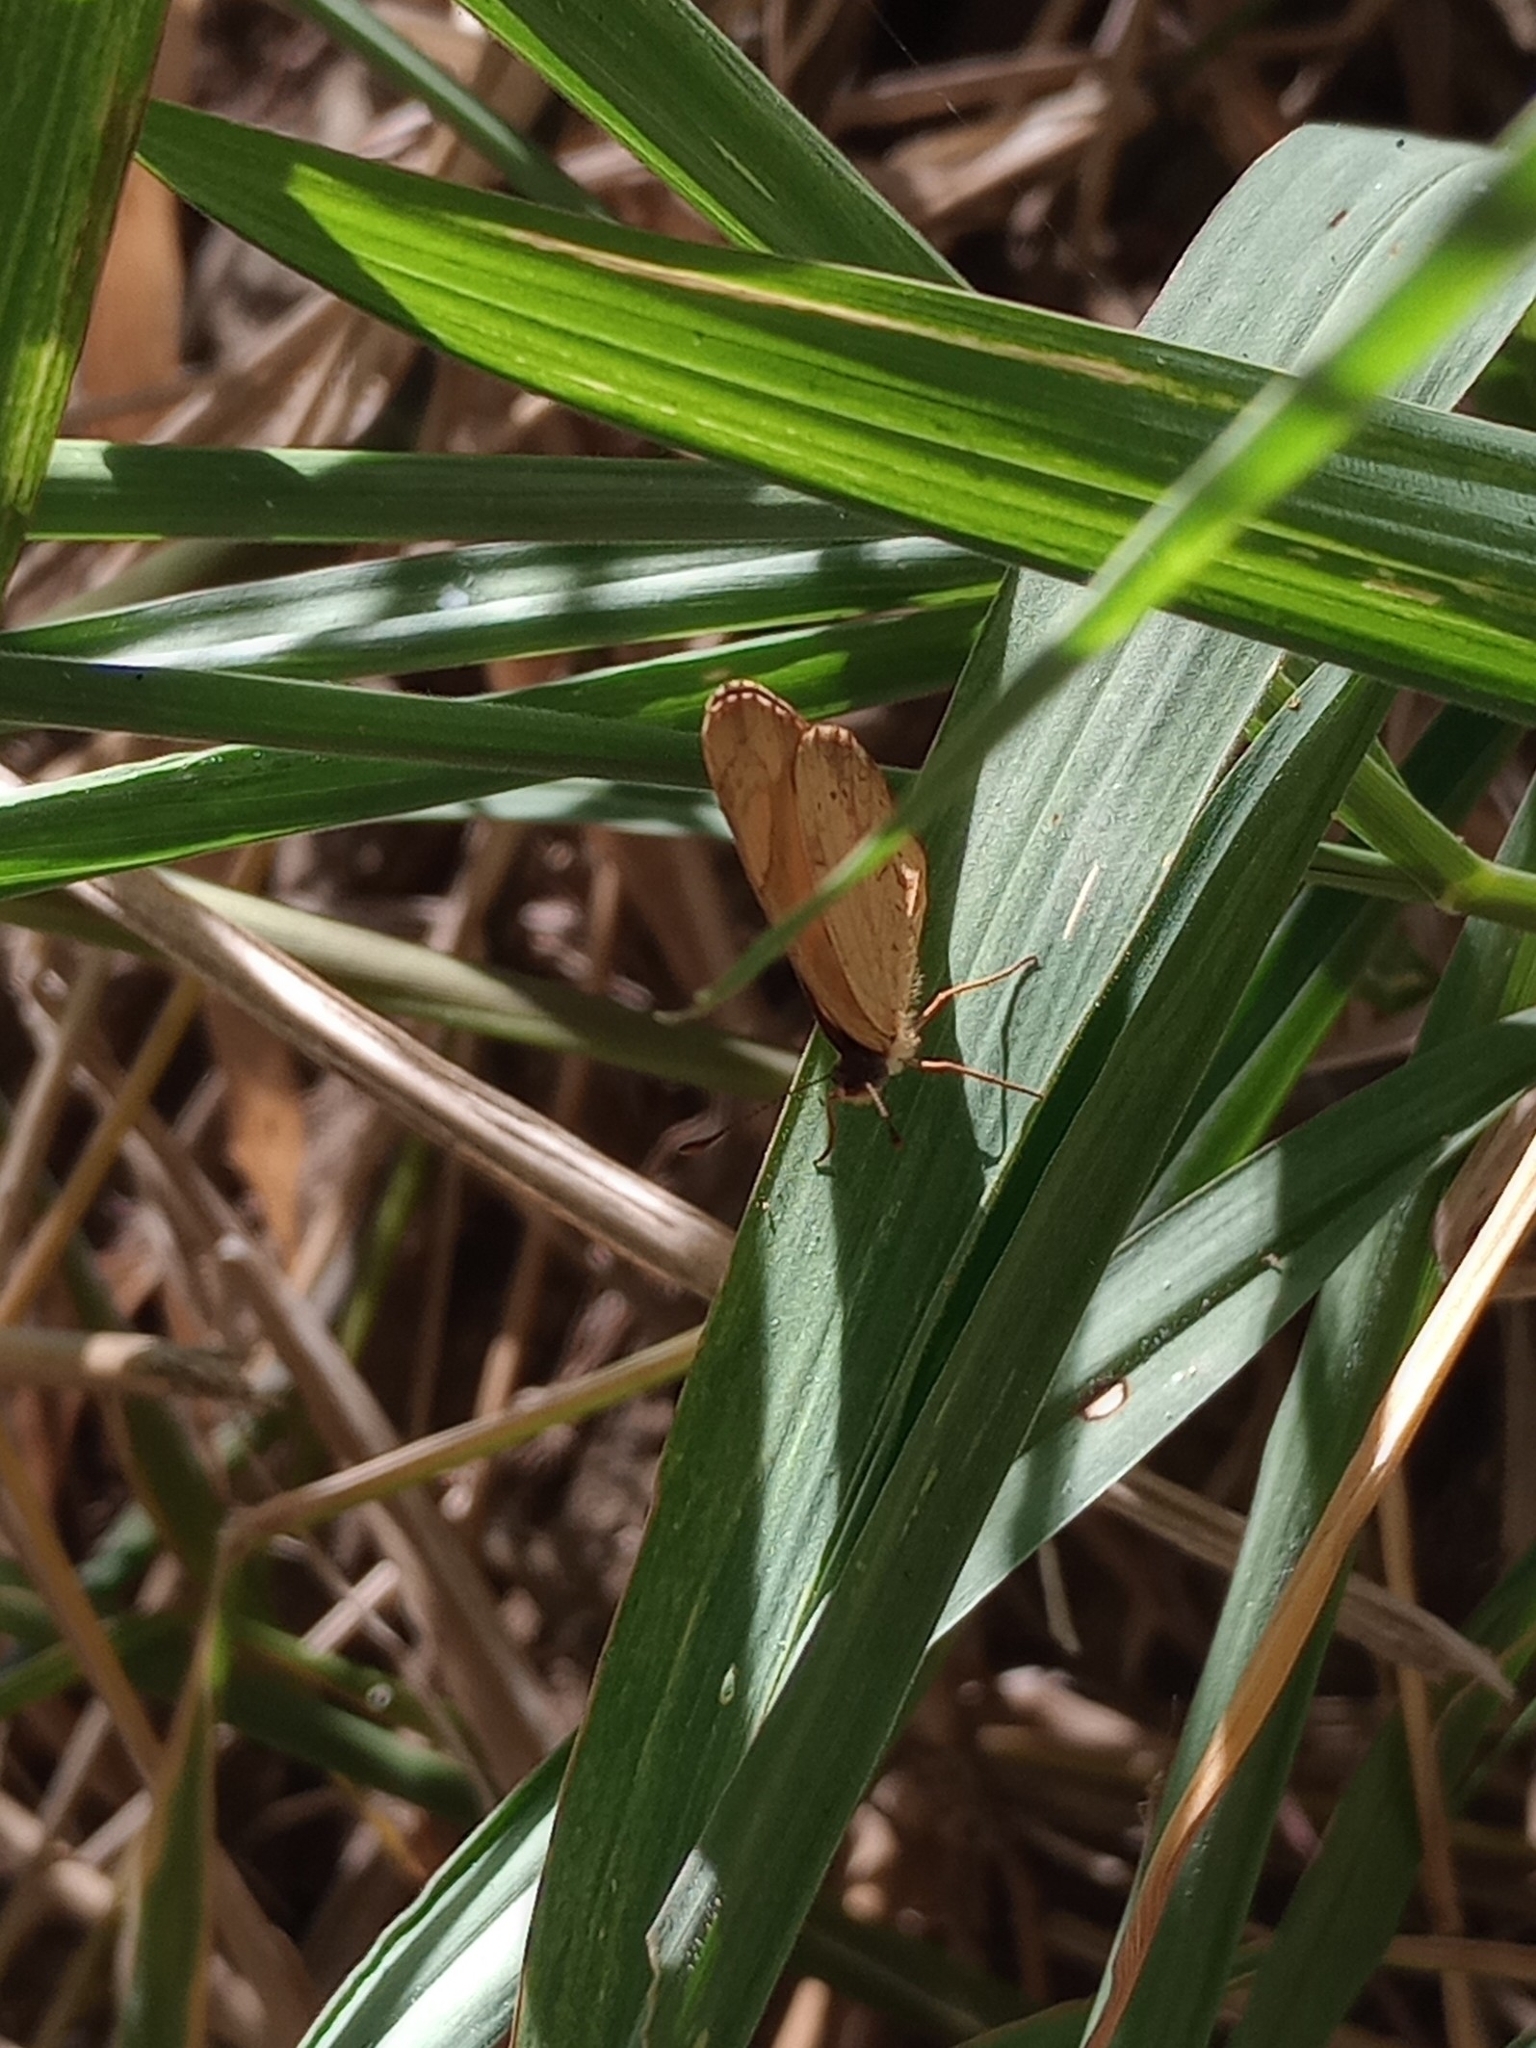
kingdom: Animalia
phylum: Arthropoda
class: Insecta
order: Lepidoptera
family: Nymphalidae
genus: Tegosa
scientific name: Tegosa claudina
